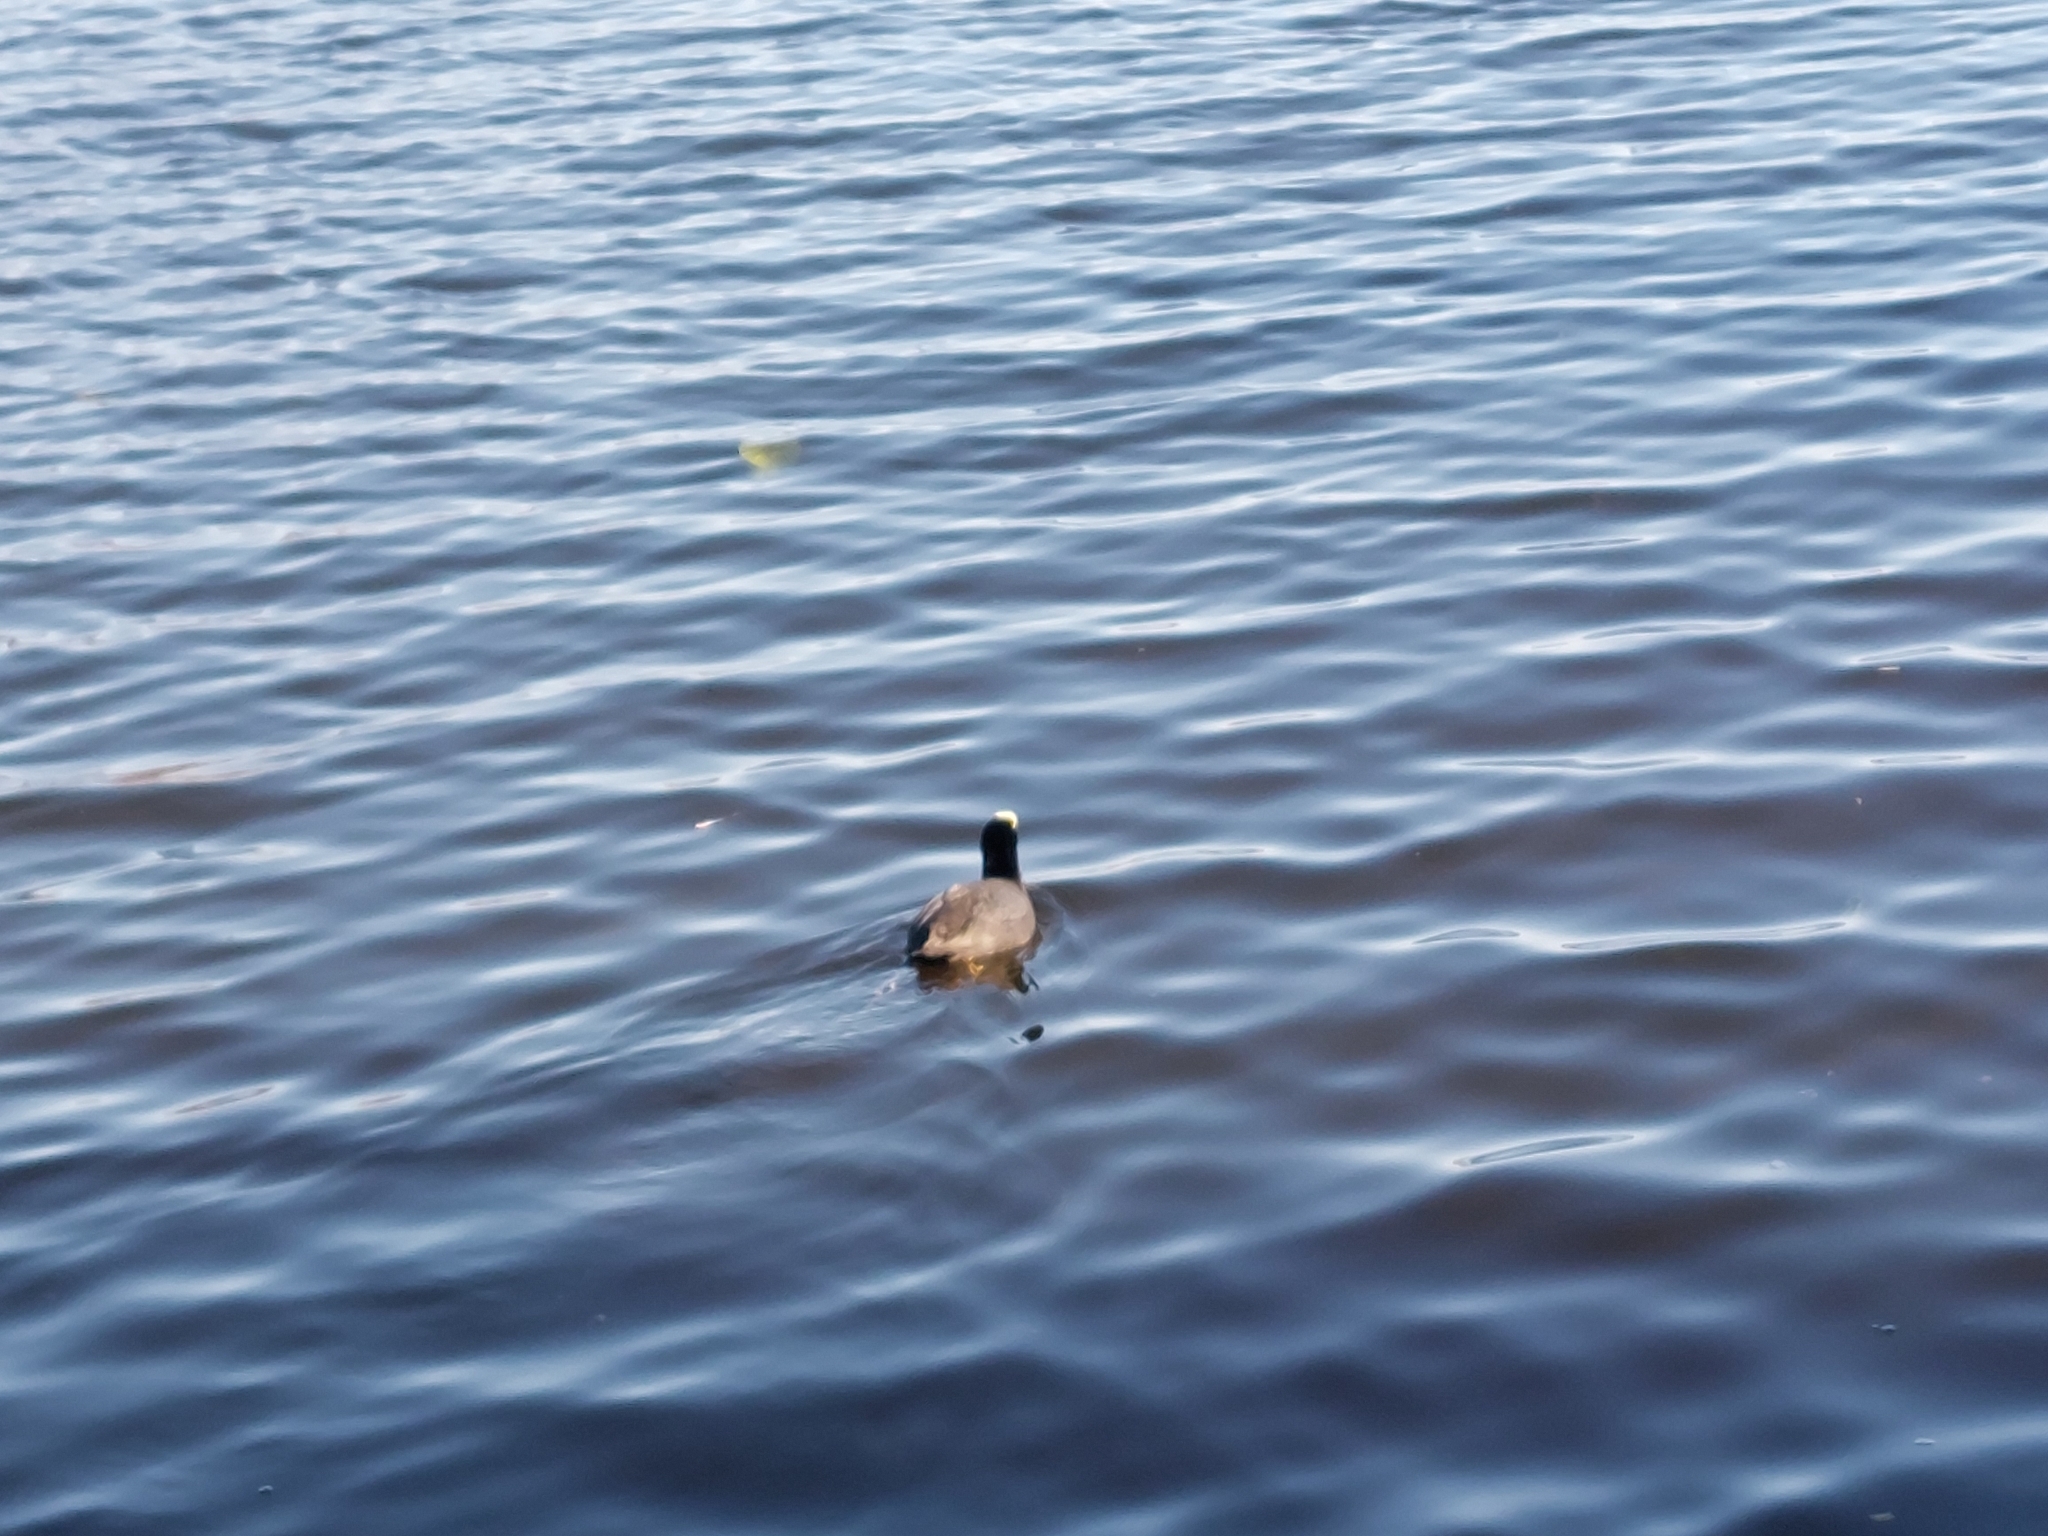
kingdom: Animalia
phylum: Chordata
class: Aves
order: Gruiformes
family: Rallidae
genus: Fulica
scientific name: Fulica atra
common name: Eurasian coot
